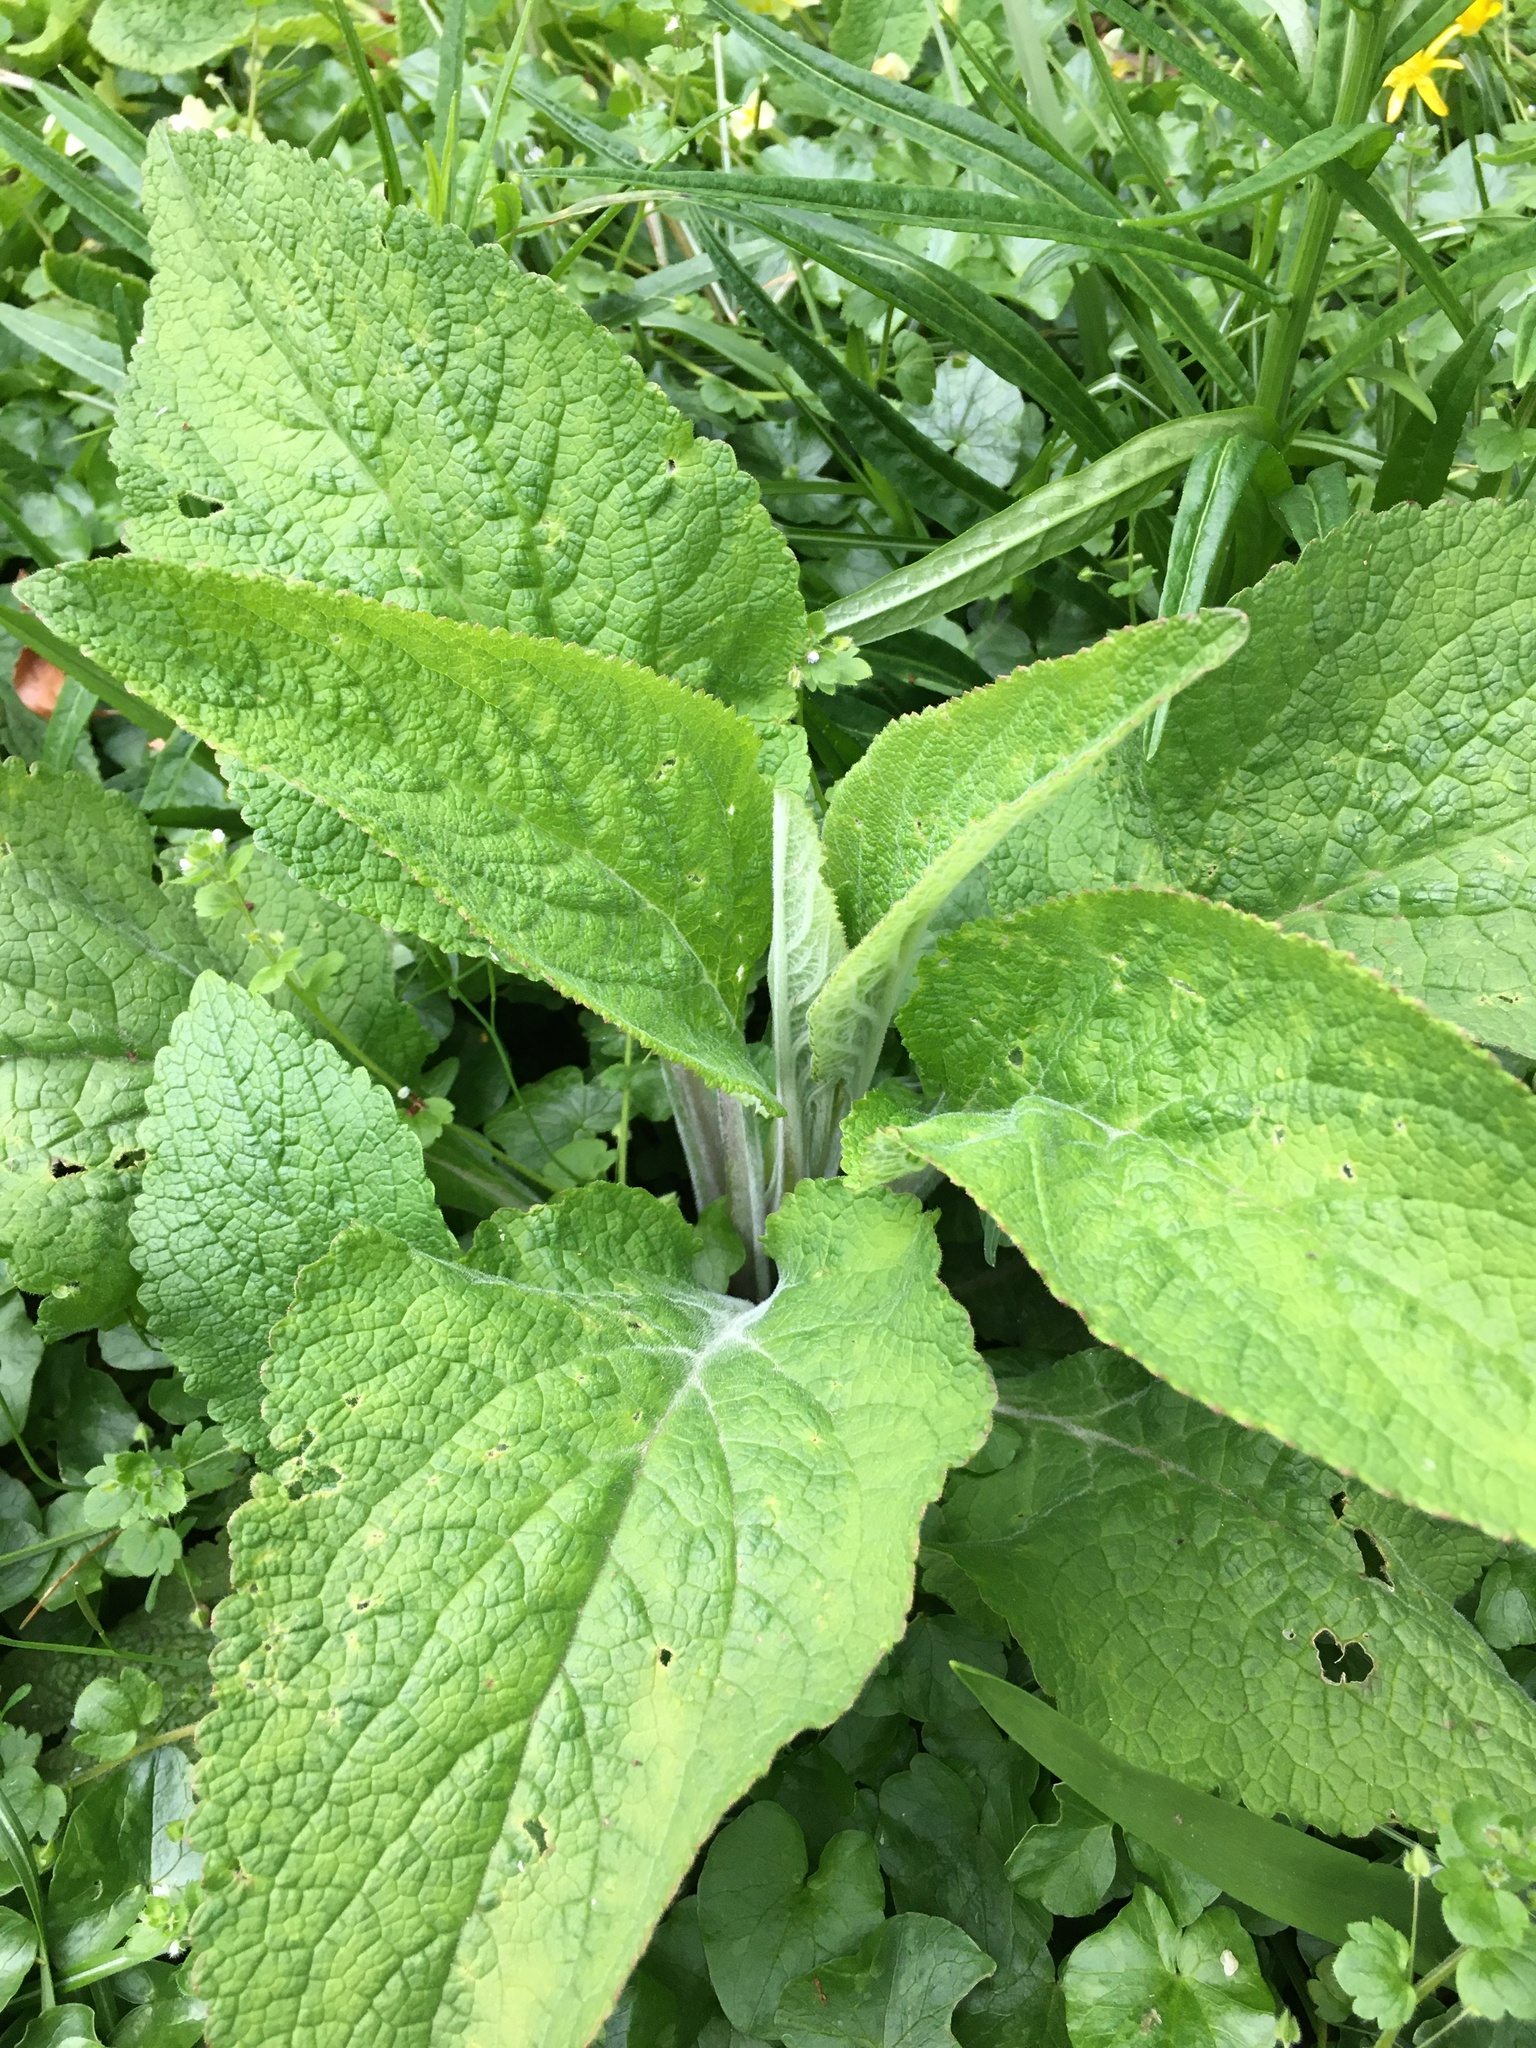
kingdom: Plantae
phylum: Tracheophyta
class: Magnoliopsida
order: Lamiales
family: Plantaginaceae
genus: Digitalis
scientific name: Digitalis purpurea
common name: Foxglove
